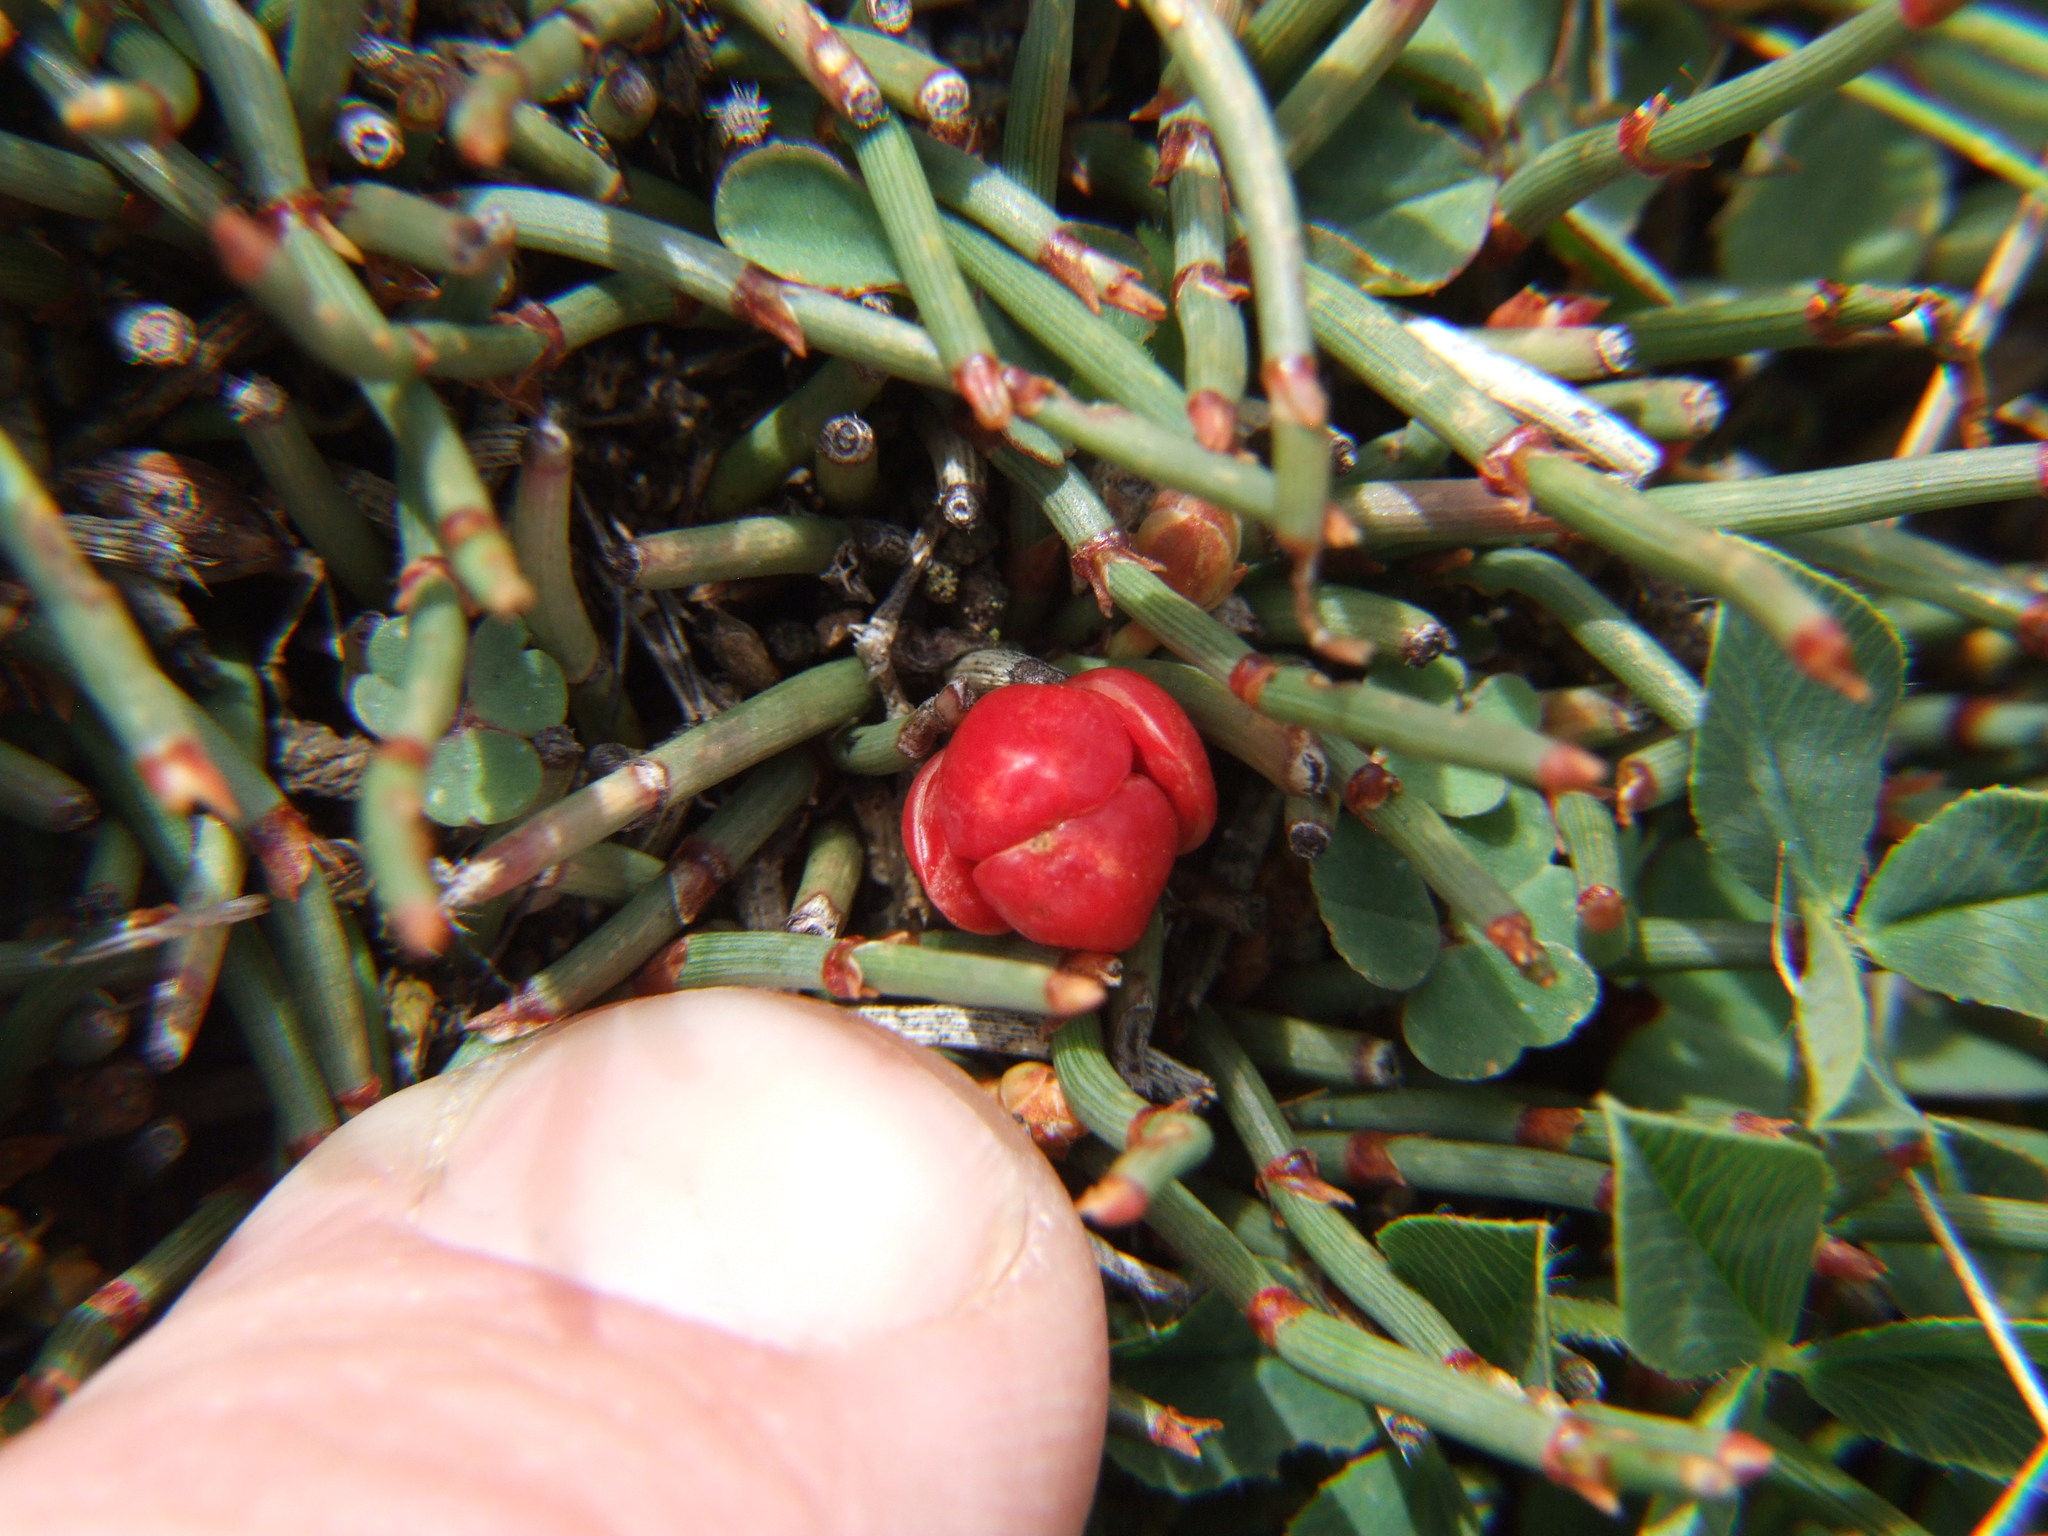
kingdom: Plantae
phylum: Tracheophyta
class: Gnetopsida
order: Ephedrales
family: Ephedraceae
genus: Ephedra
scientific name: Ephedra rupestris
